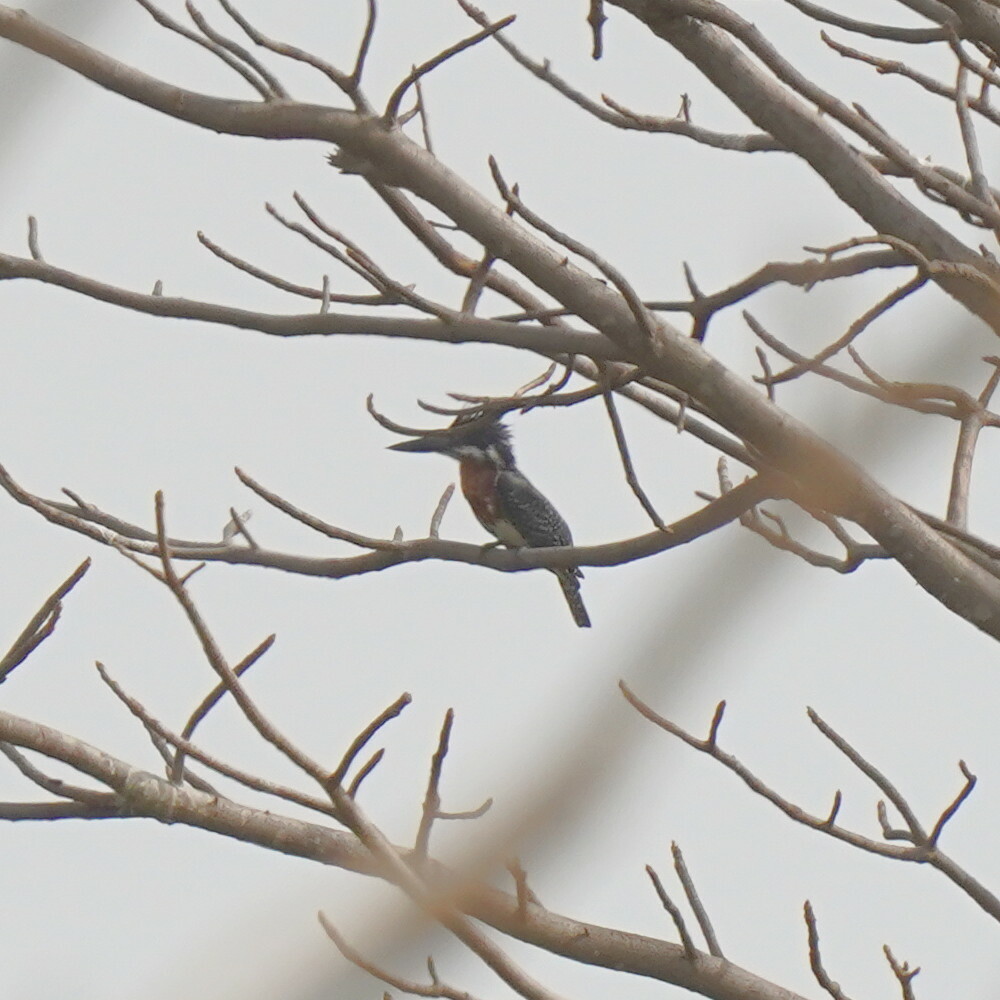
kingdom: Animalia
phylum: Chordata
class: Aves
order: Coraciiformes
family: Alcedinidae
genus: Megaceryle
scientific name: Megaceryle maxima
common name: Giant kingfisher
